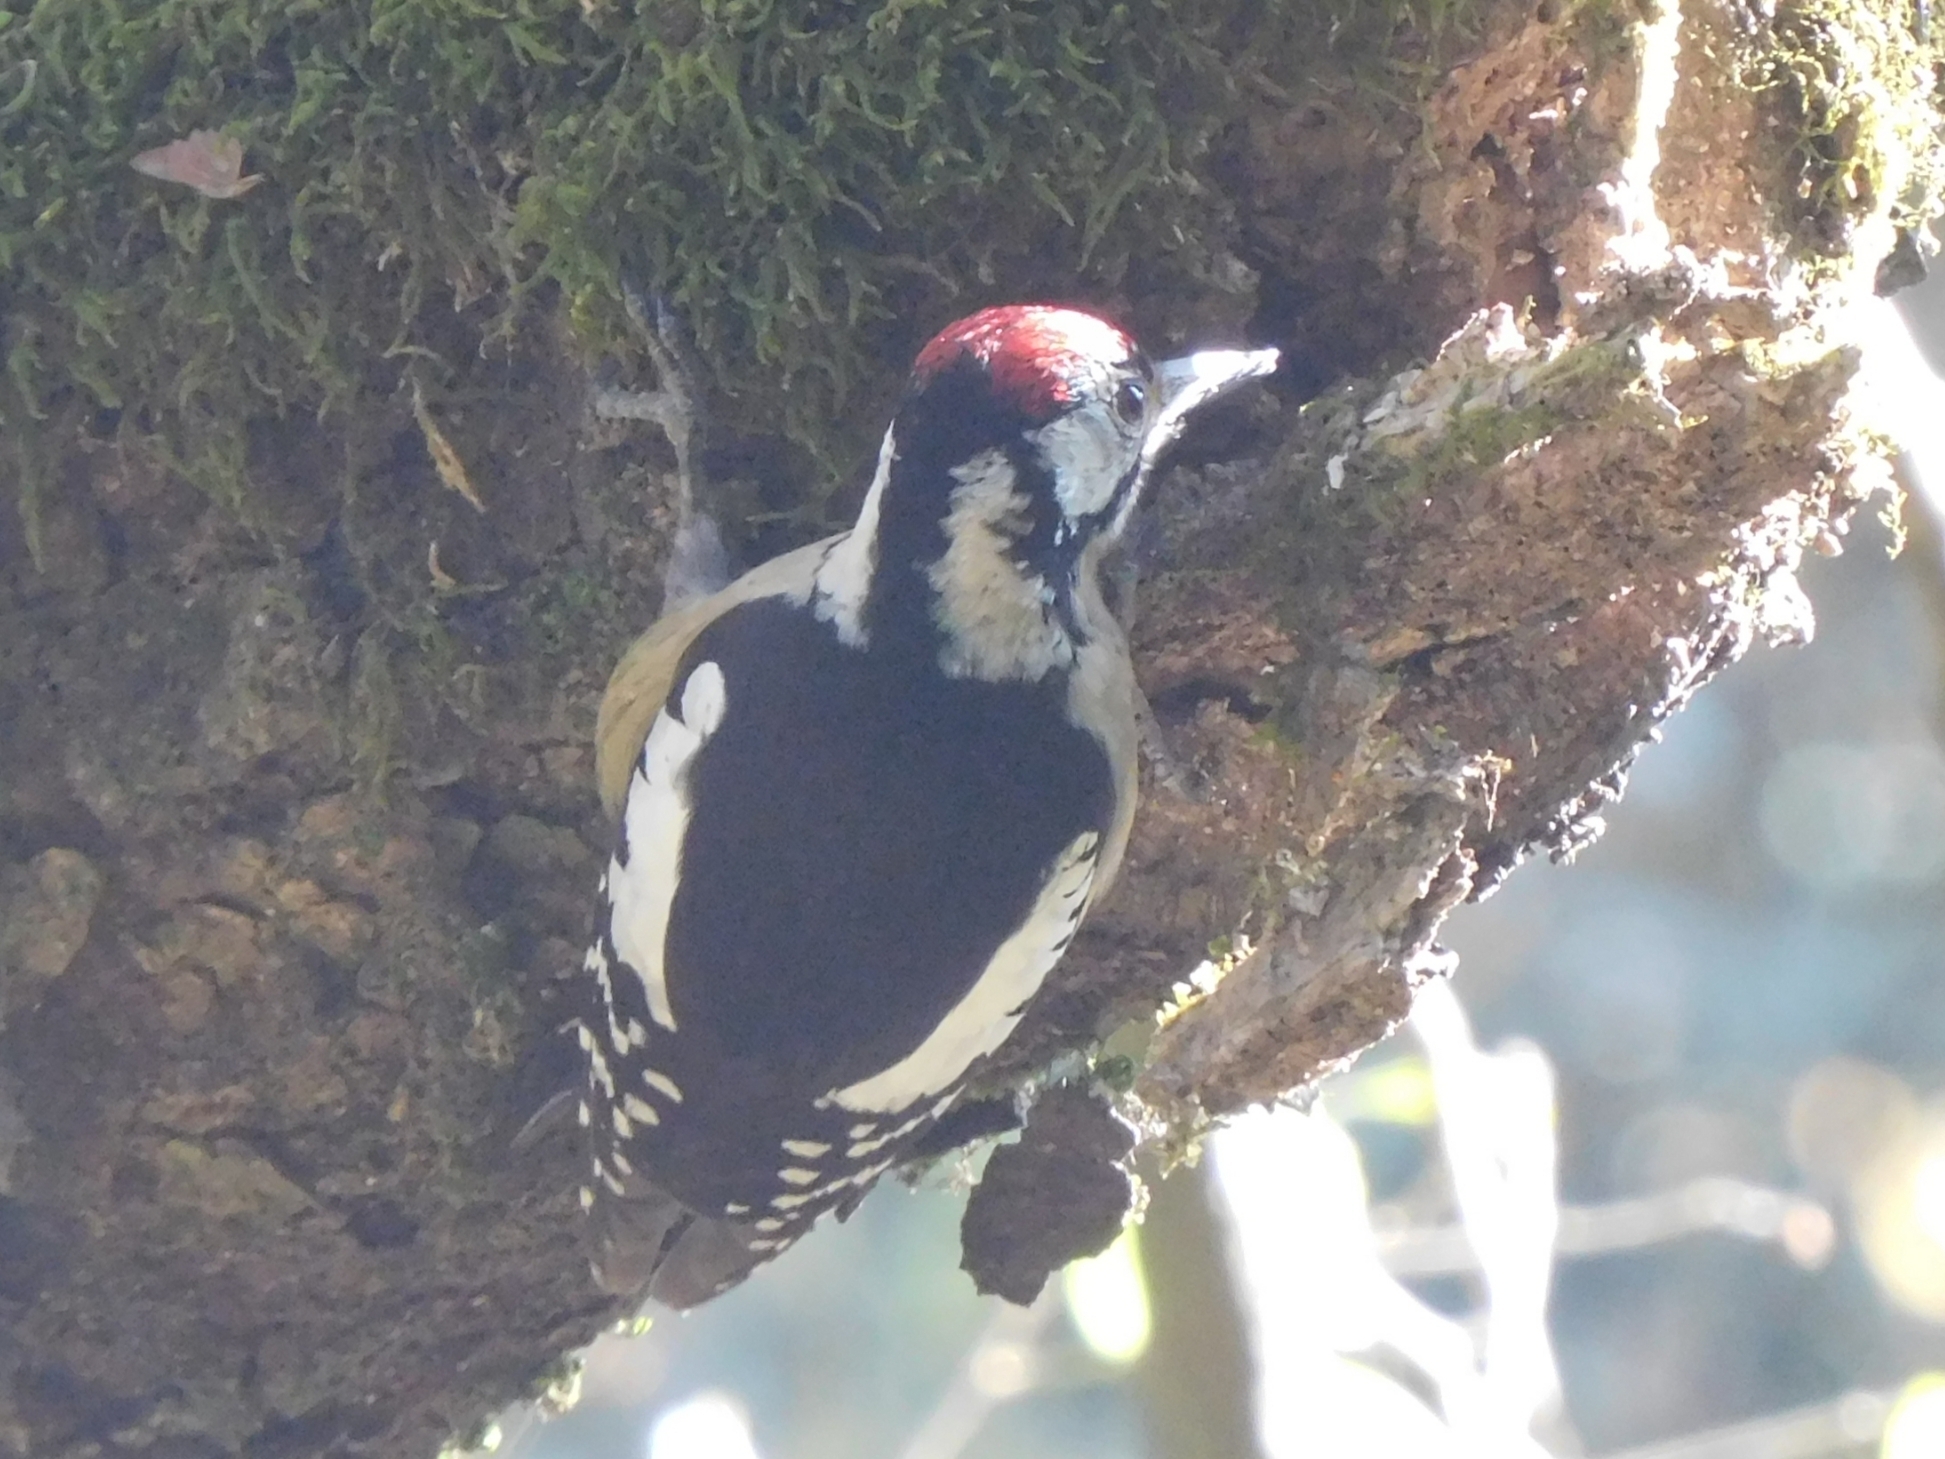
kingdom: Animalia
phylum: Chordata
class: Aves
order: Piciformes
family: Picidae
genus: Dendrocopos
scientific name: Dendrocopos himalayensis
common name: Himalayan woodpecker
